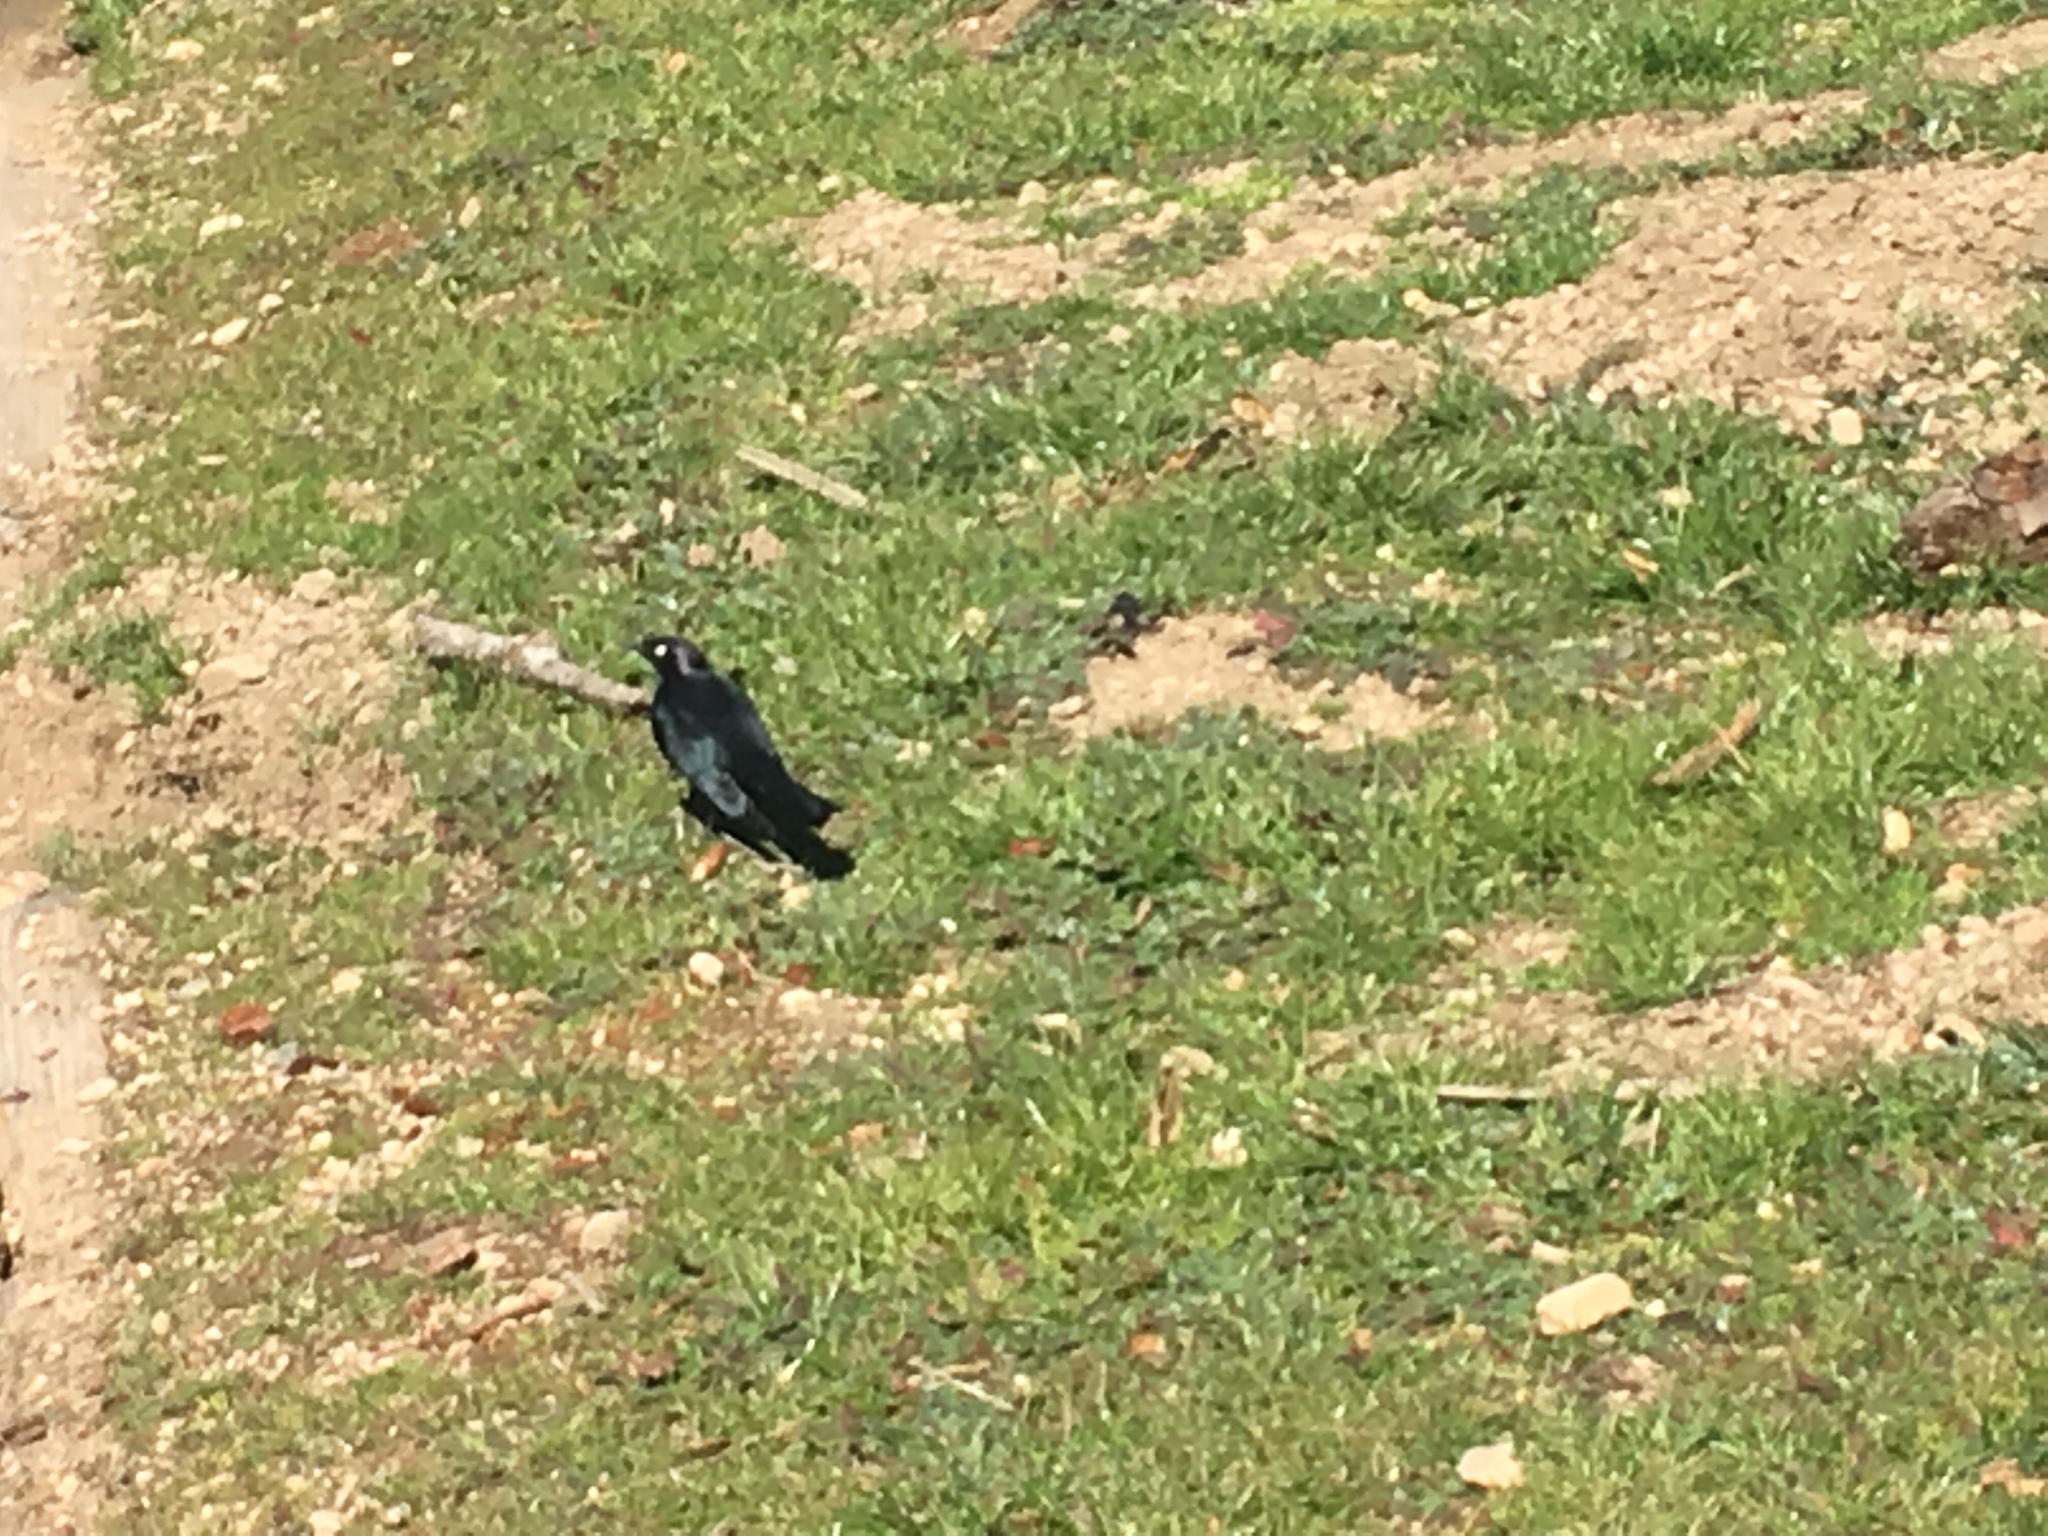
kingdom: Animalia
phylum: Chordata
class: Aves
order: Passeriformes
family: Icteridae
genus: Euphagus
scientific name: Euphagus cyanocephalus
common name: Brewer's blackbird
